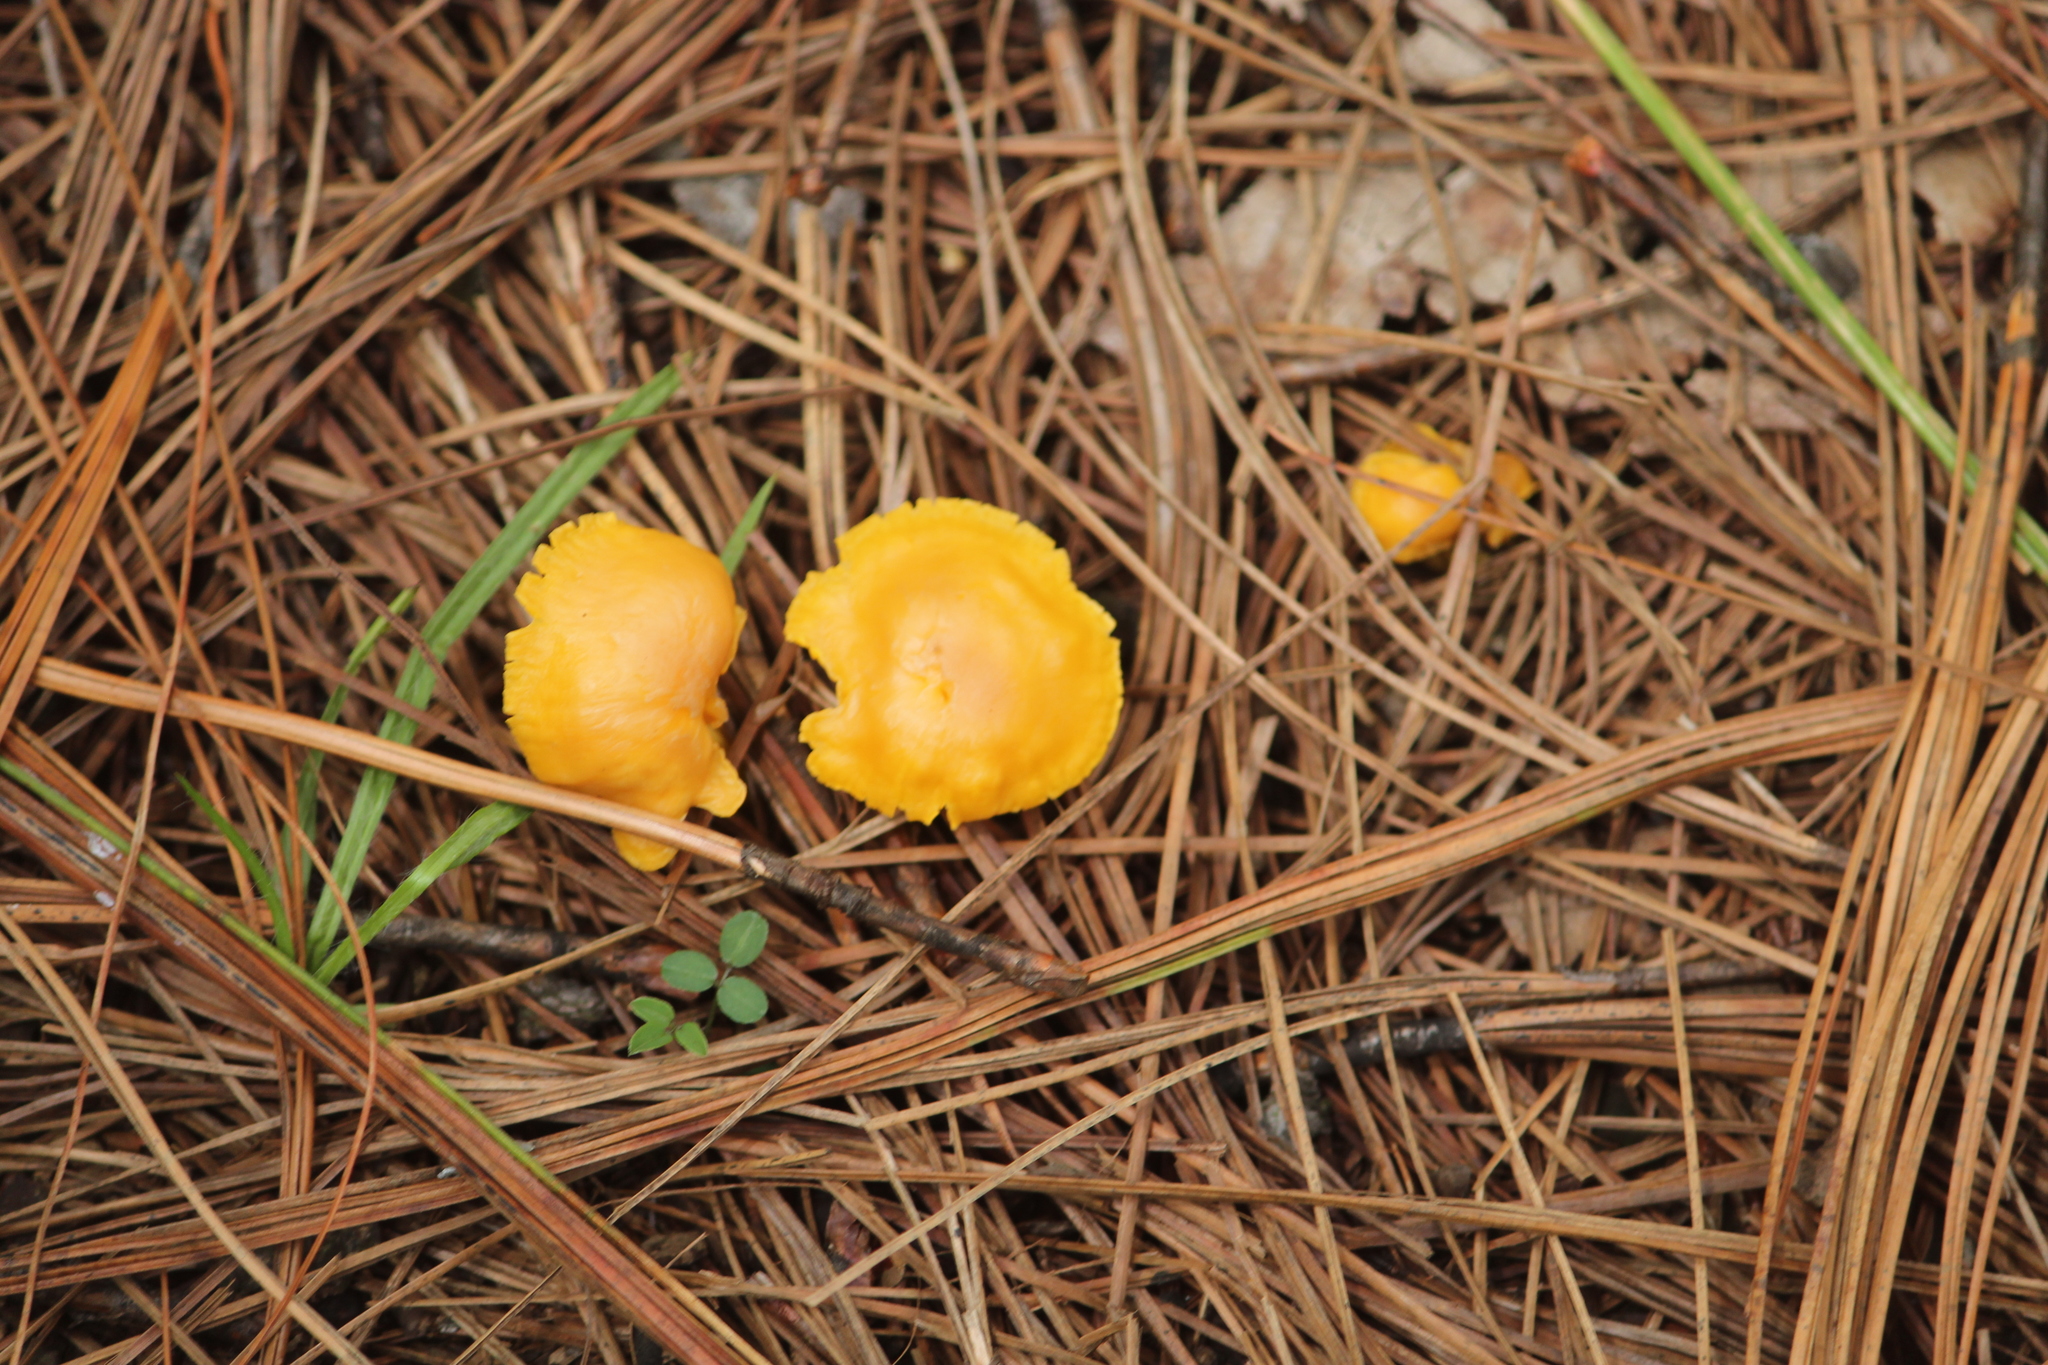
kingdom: Fungi
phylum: Basidiomycota
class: Agaricomycetes
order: Cantharellales
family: Hydnaceae
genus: Cantharellus
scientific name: Cantharellus minor
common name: Small chanterelle
